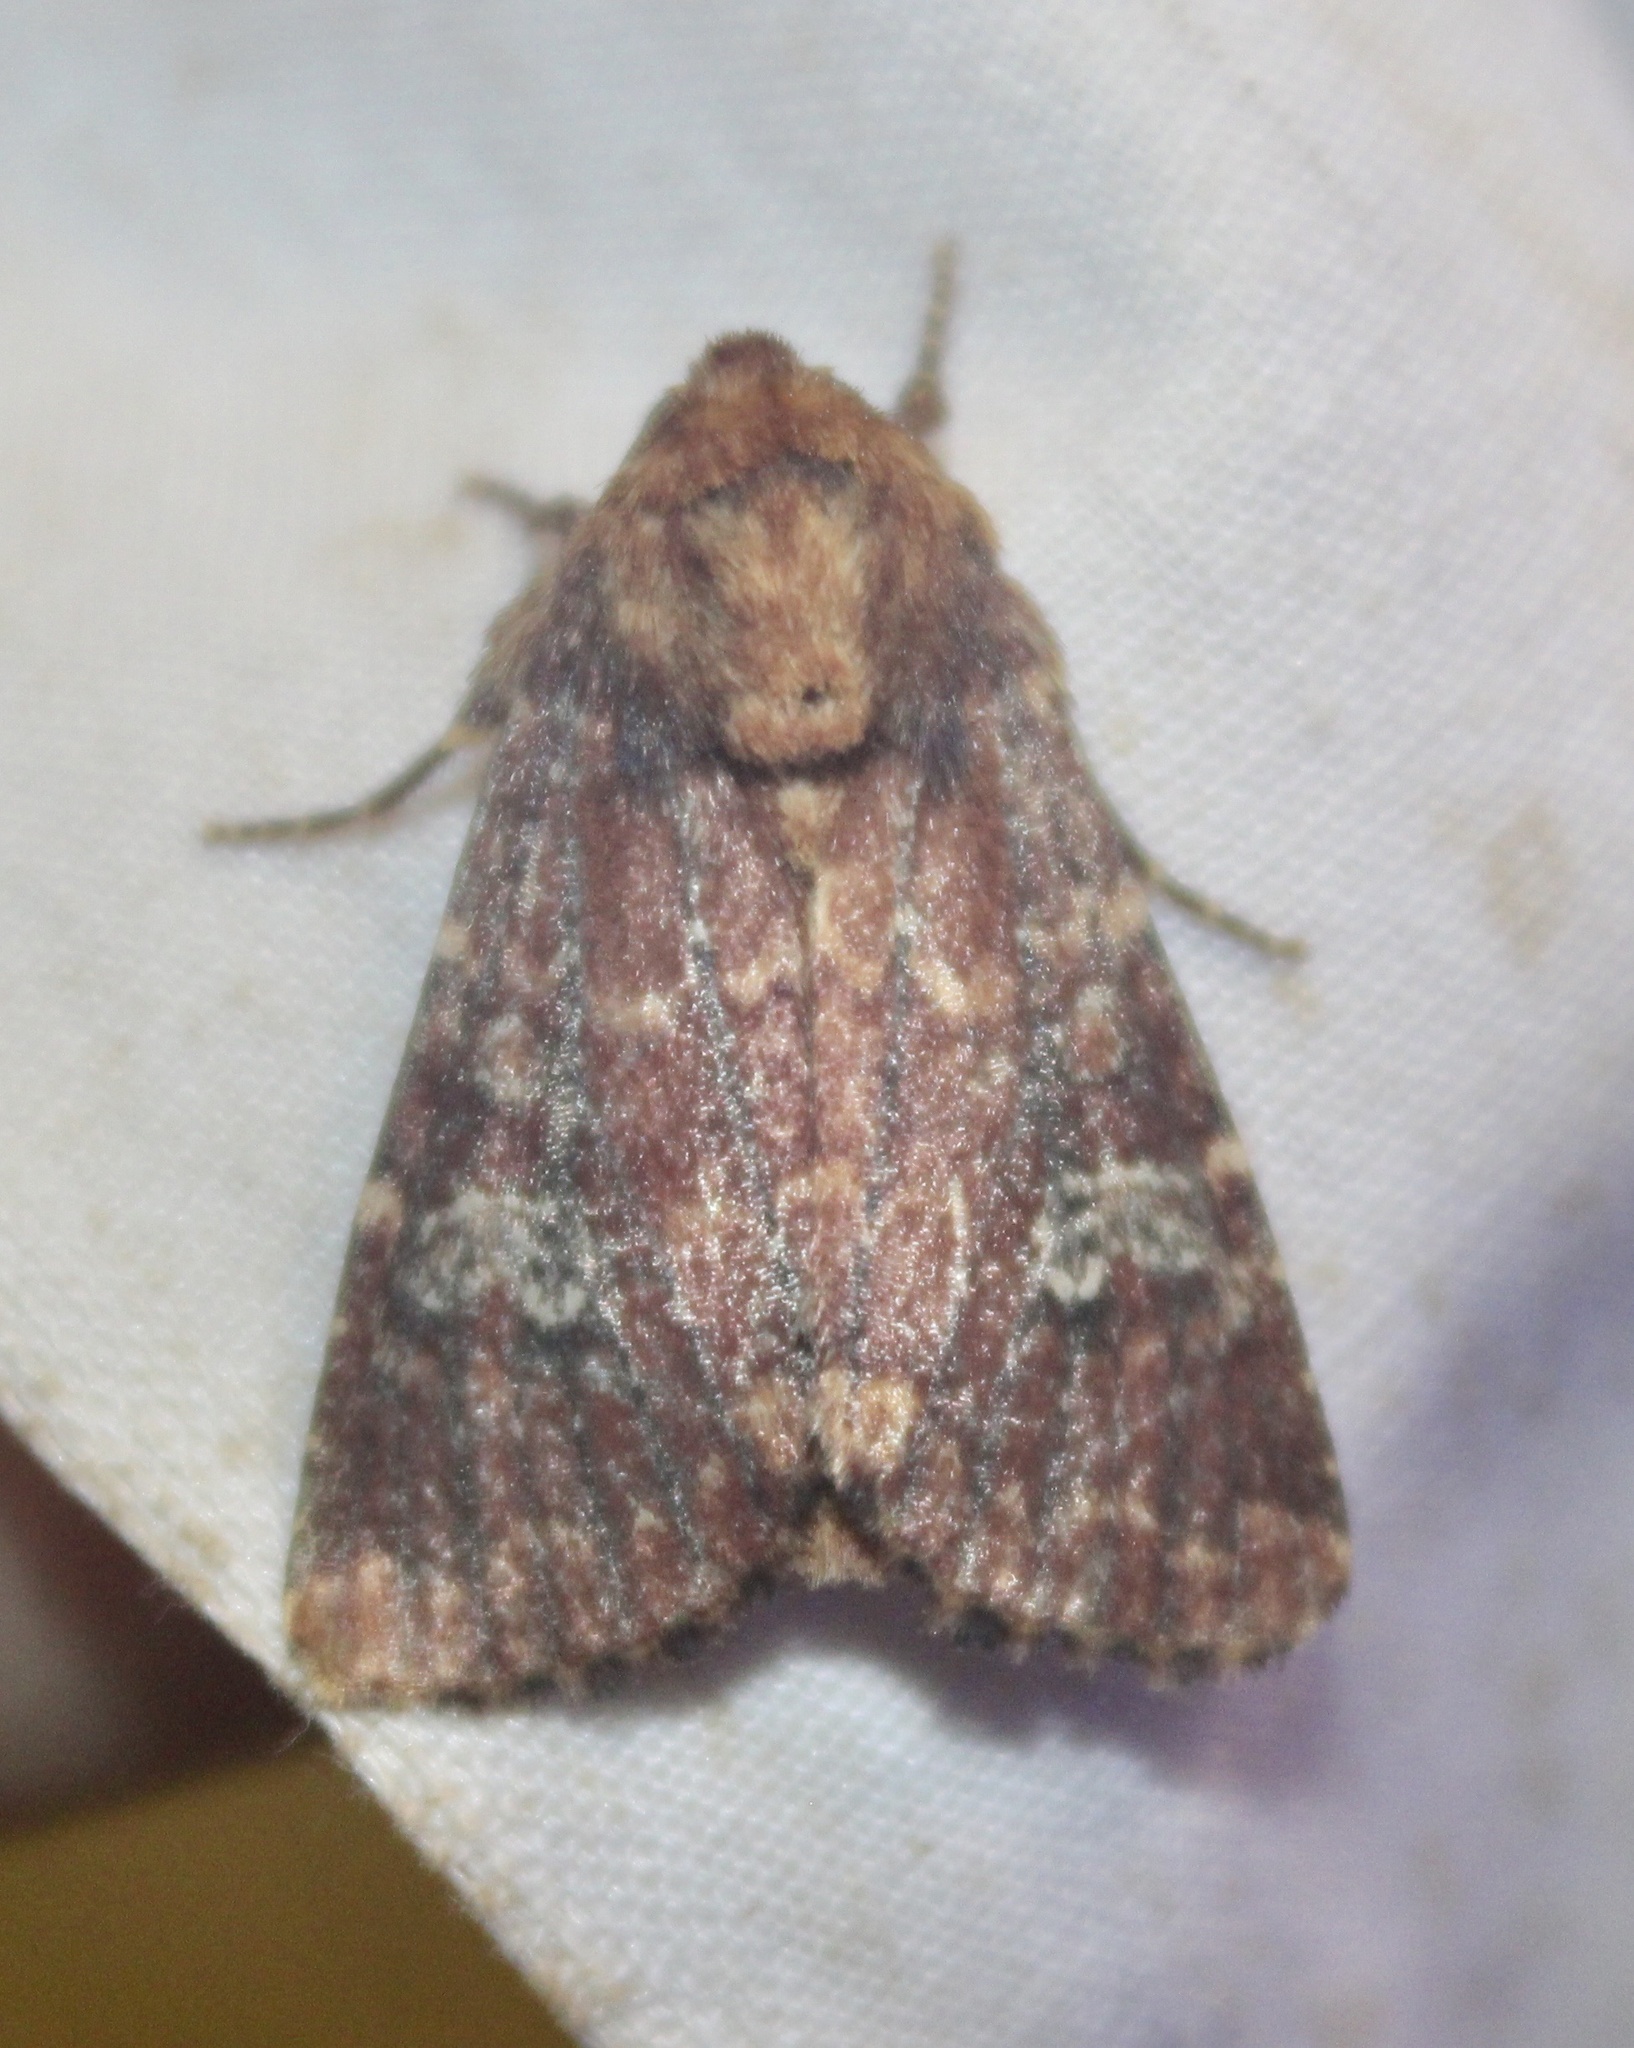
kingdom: Animalia
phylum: Arthropoda
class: Insecta
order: Lepidoptera
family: Noctuidae
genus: Sideridis
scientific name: Sideridis congermana
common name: German cousin moth
